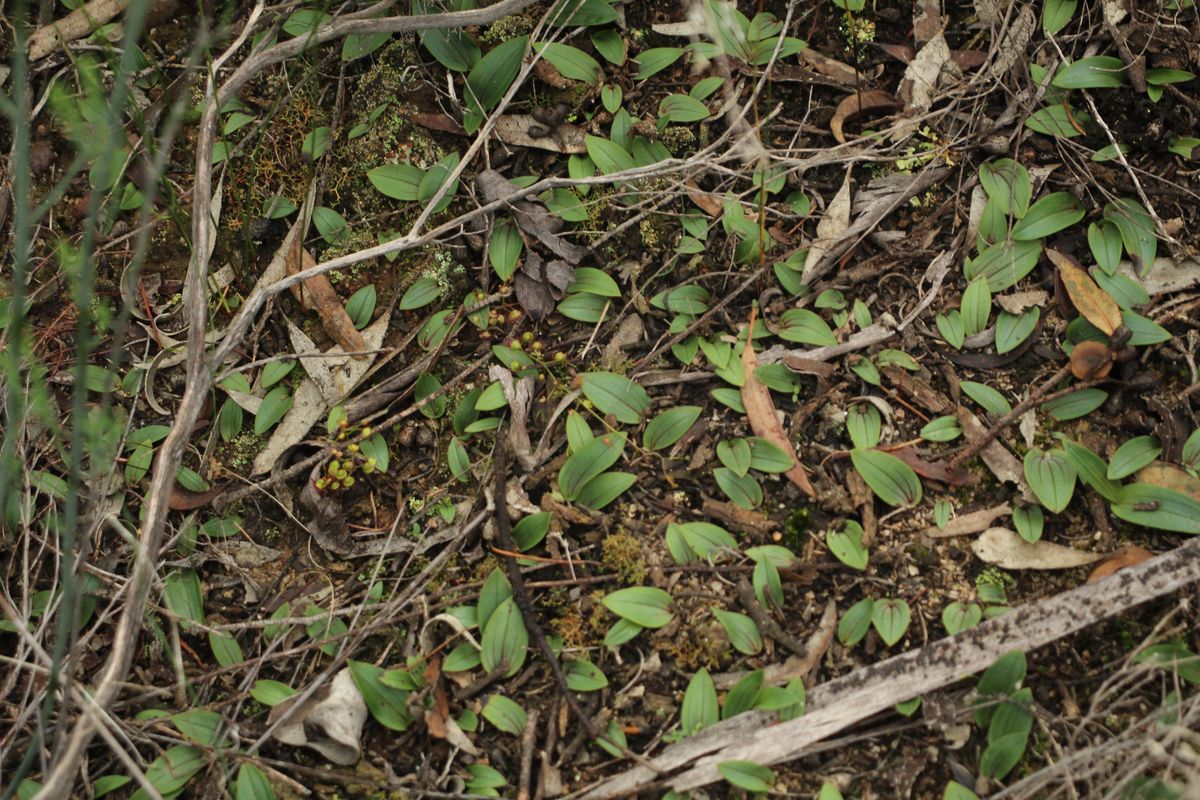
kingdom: Plantae
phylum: Tracheophyta
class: Liliopsida
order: Asparagales
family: Orchidaceae
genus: Leporella
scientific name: Leporella fimbriata
